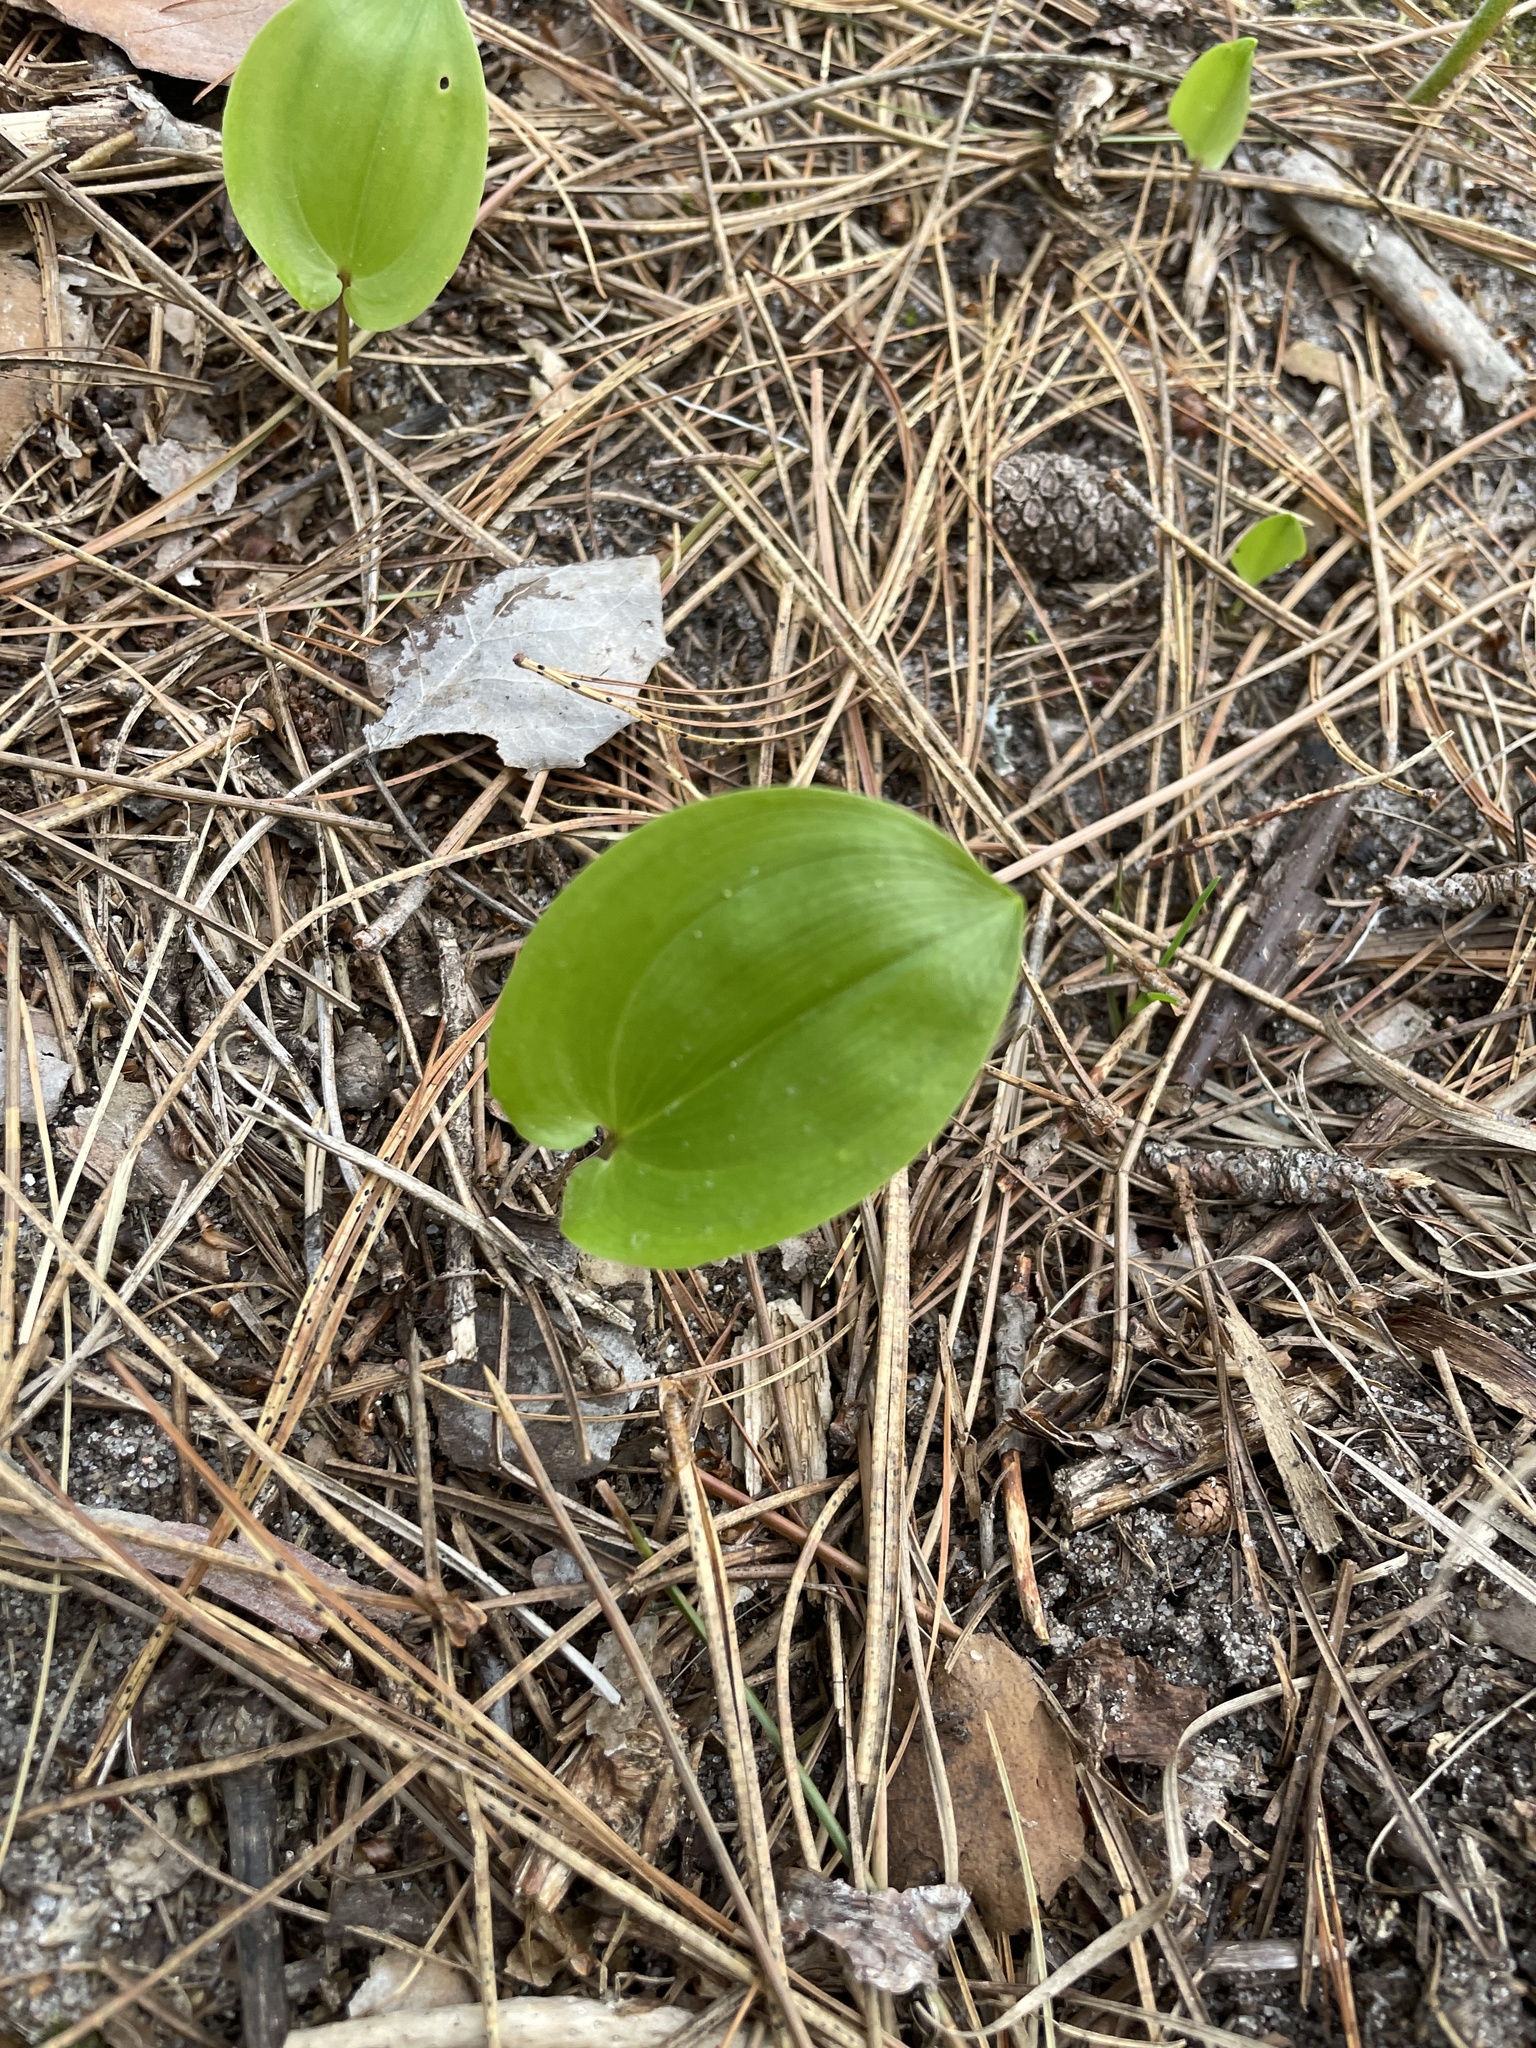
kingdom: Plantae
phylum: Tracheophyta
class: Liliopsida
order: Asparagales
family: Asparagaceae
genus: Maianthemum
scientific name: Maianthemum canadense
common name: False lily-of-the-valley
